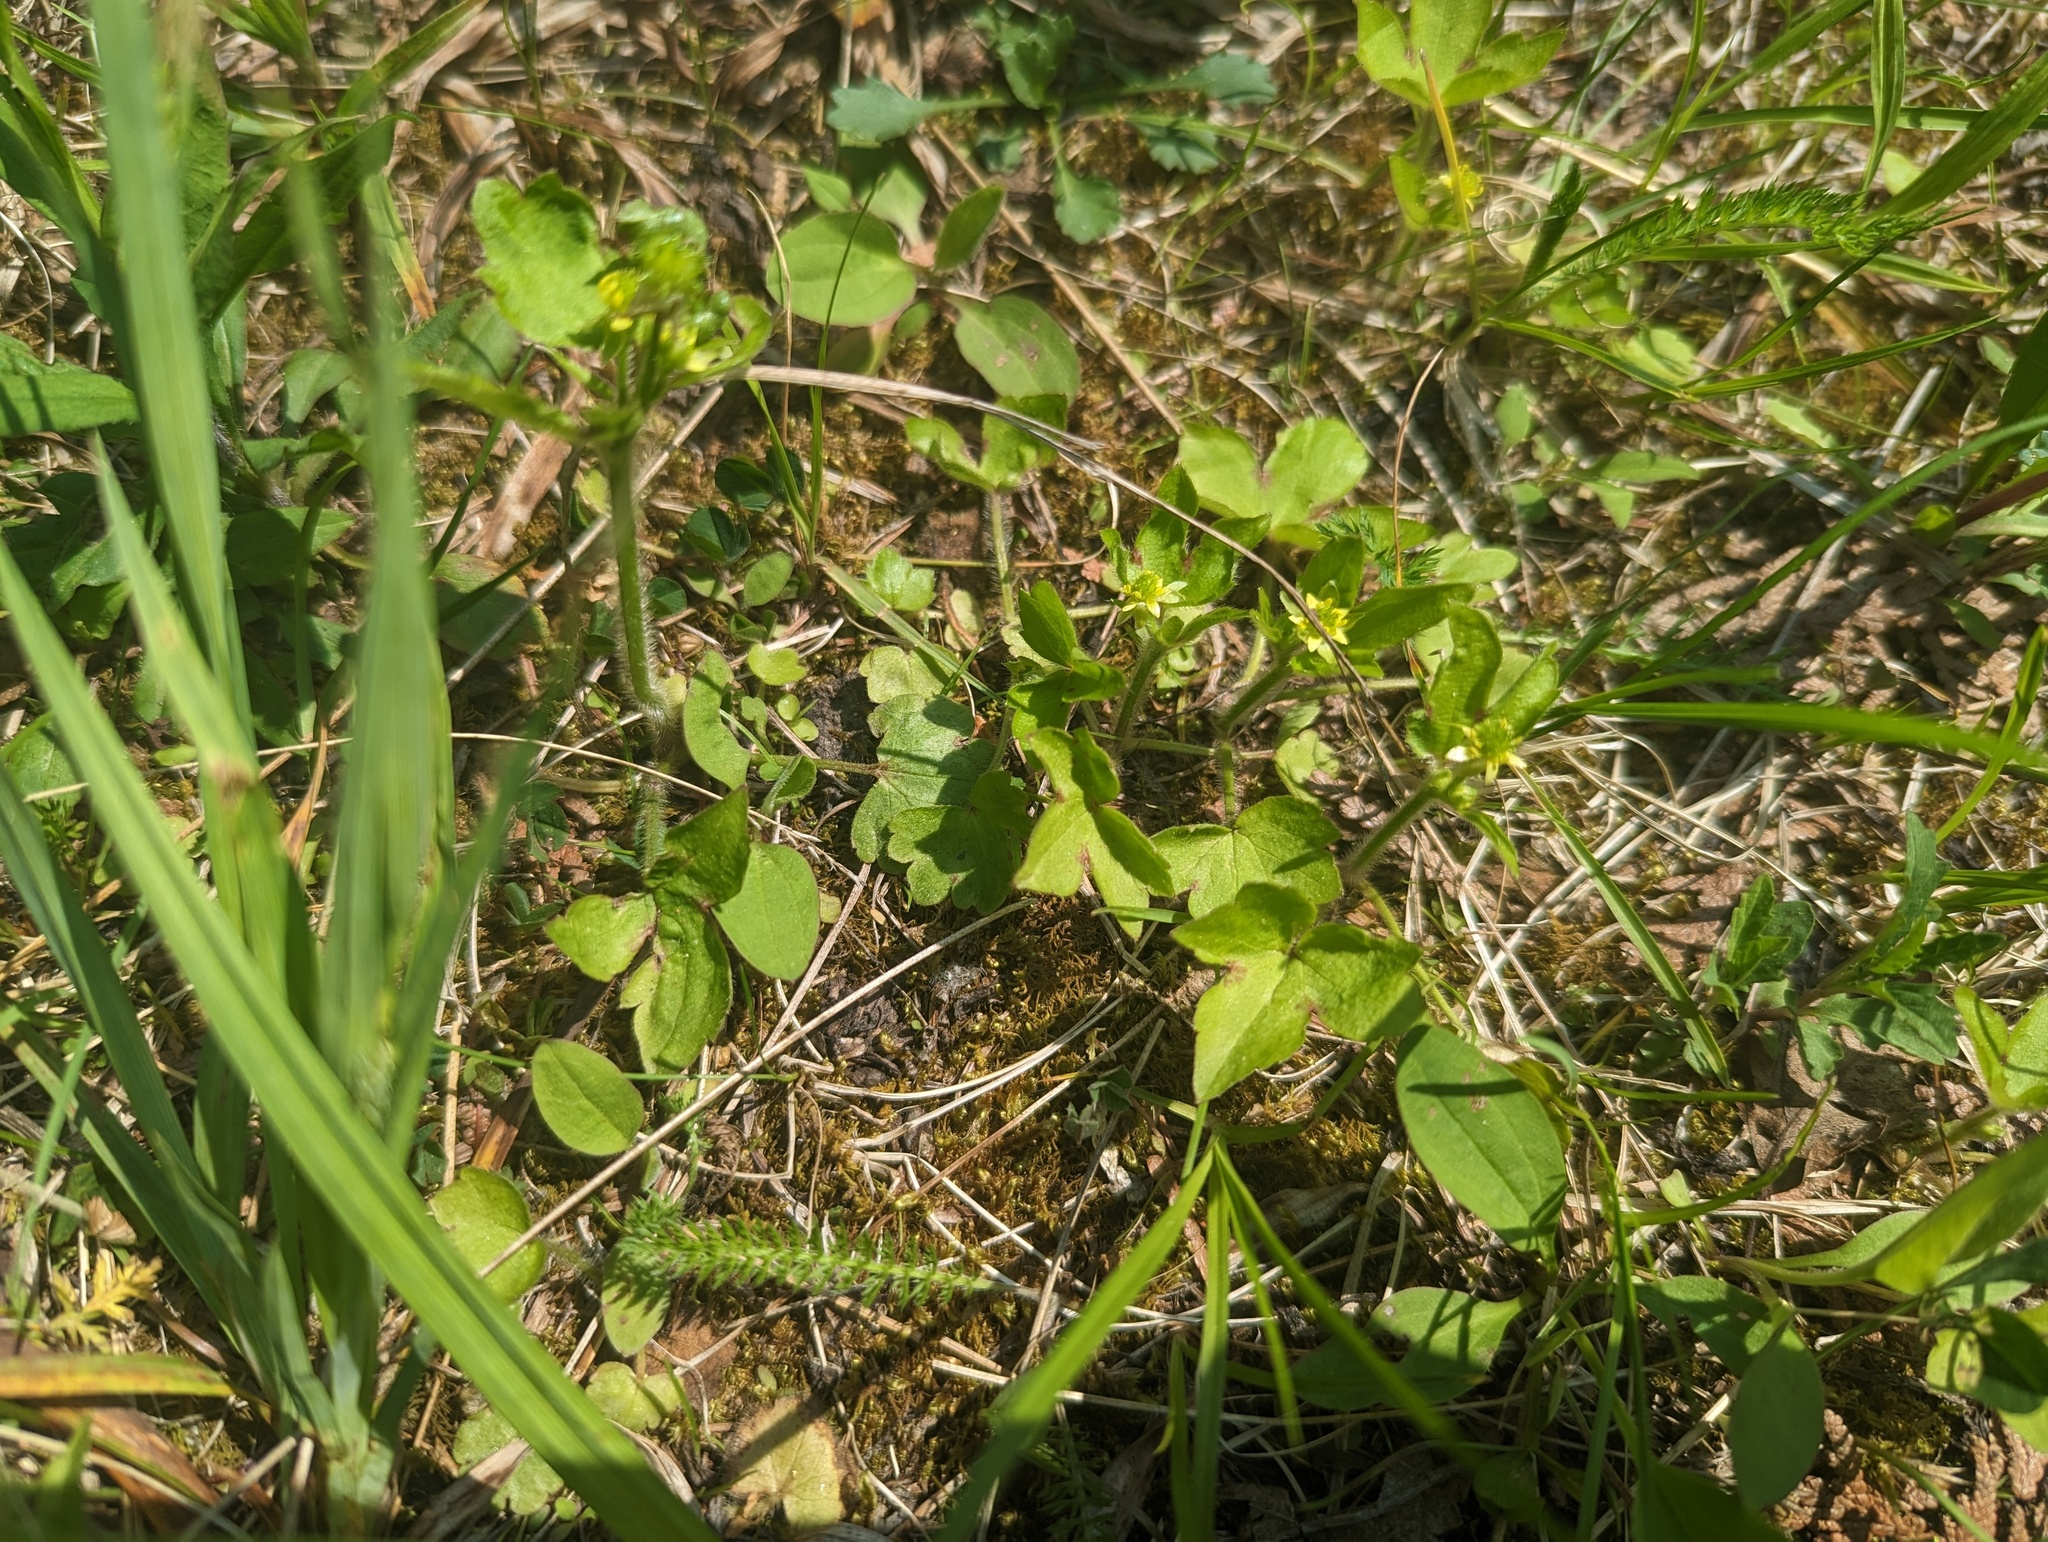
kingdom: Plantae
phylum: Tracheophyta
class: Magnoliopsida
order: Ranunculales
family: Ranunculaceae
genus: Ranunculus
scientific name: Ranunculus recurvatus
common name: Blisterwort
